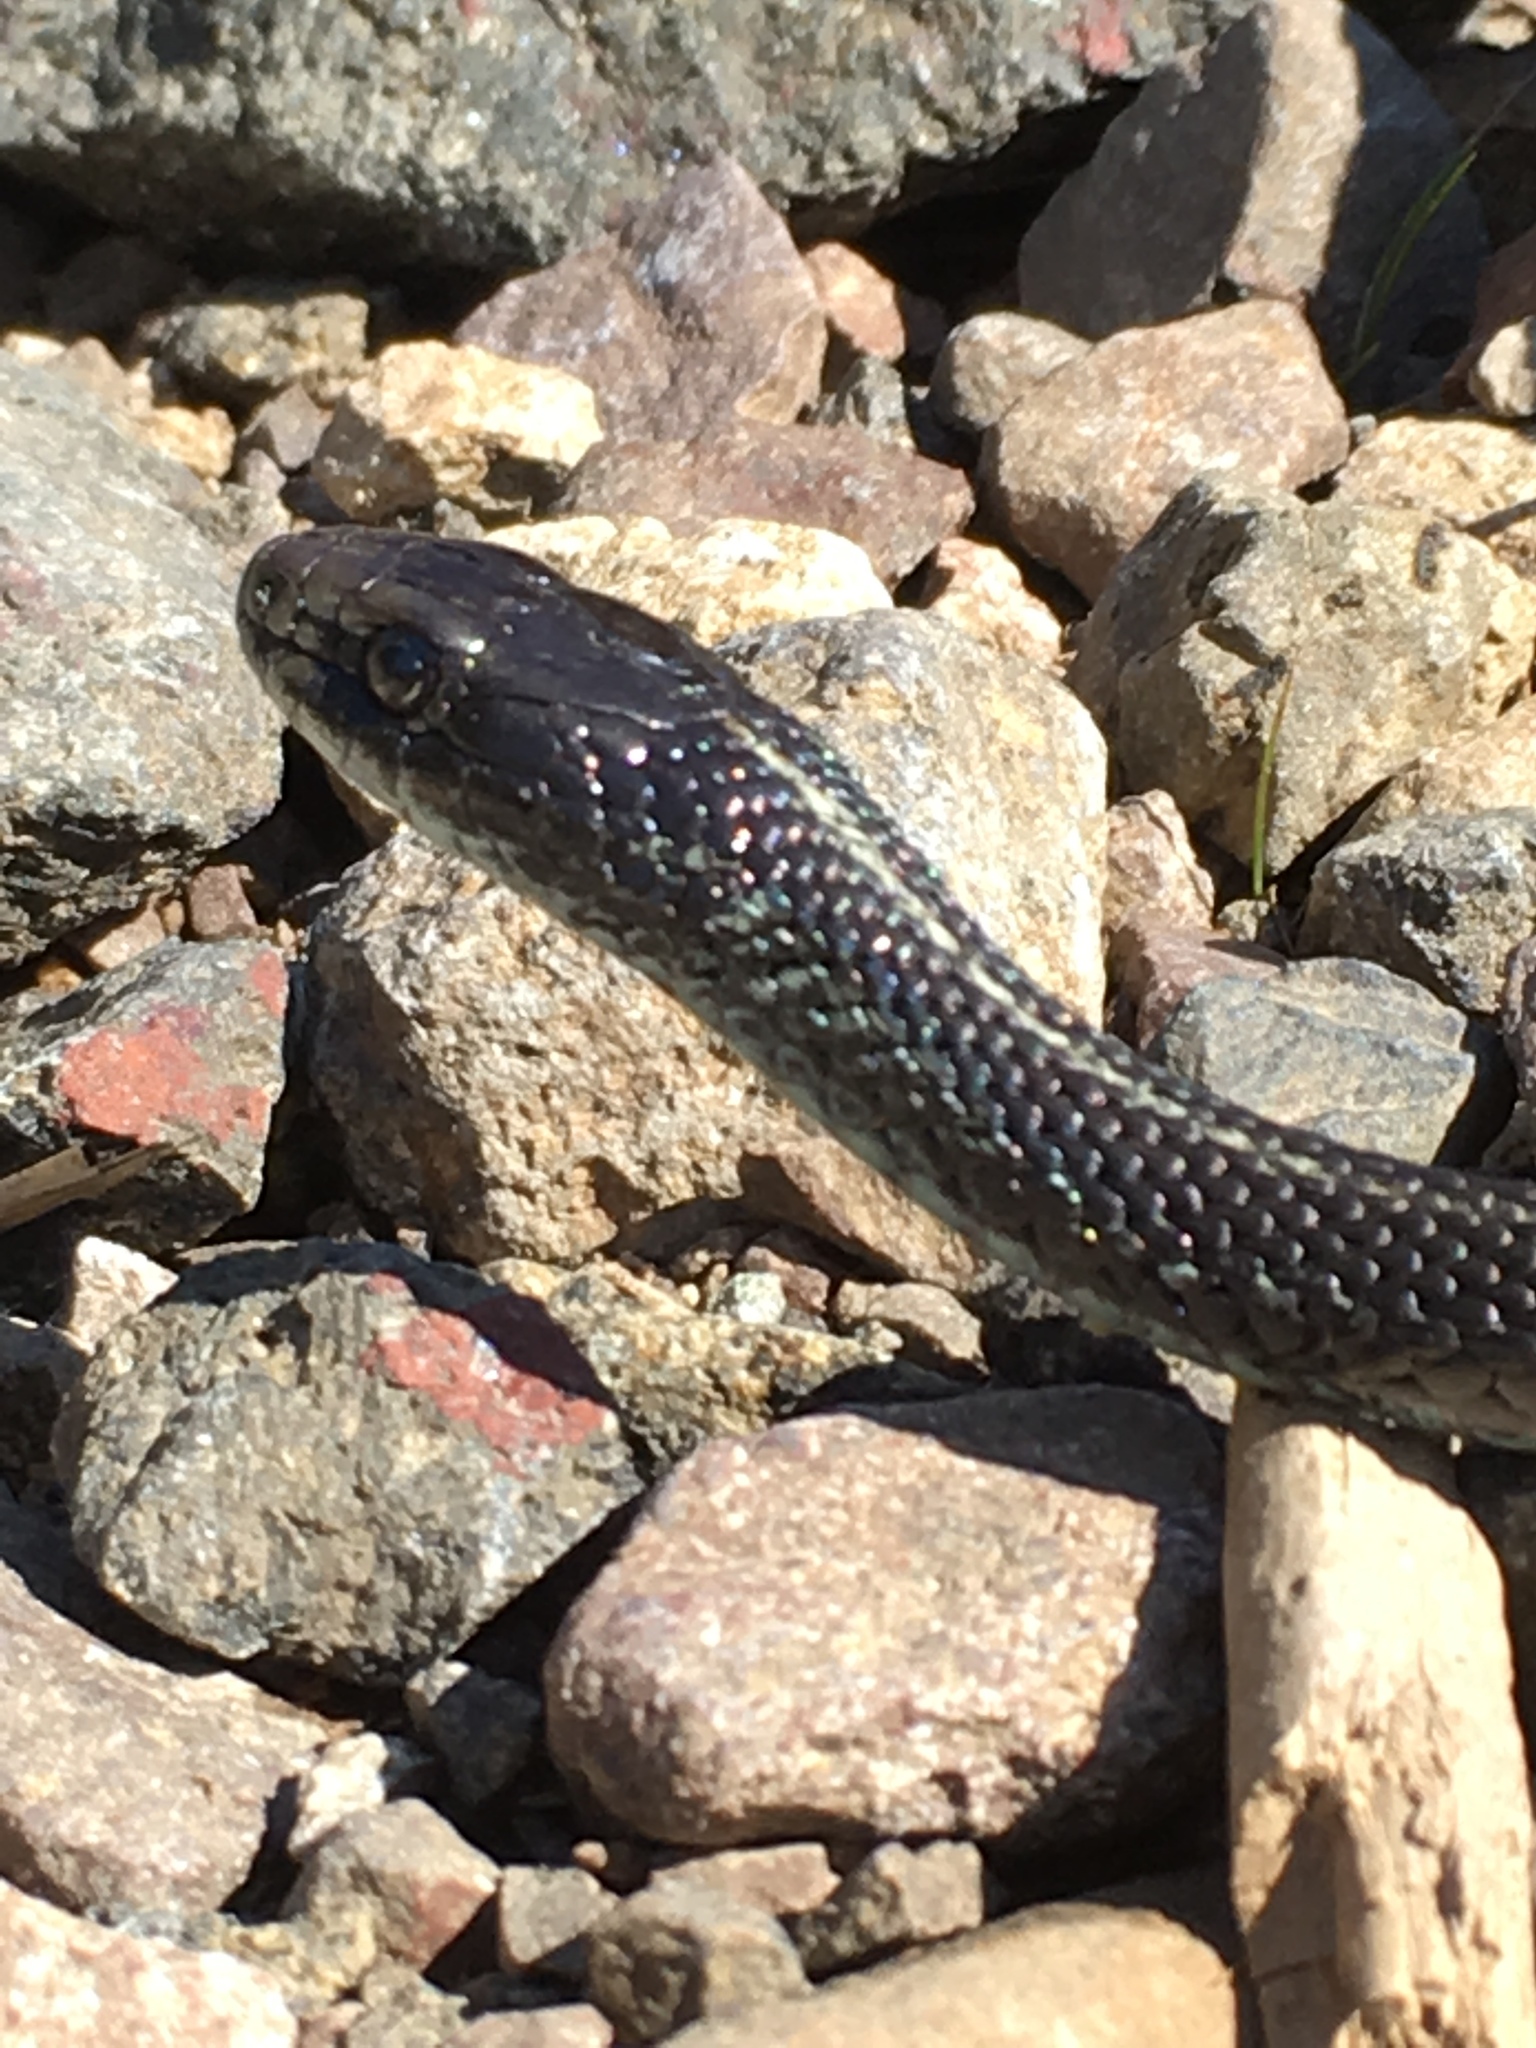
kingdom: Animalia
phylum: Chordata
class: Squamata
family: Colubridae
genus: Thamnophis
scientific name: Thamnophis ordinoides
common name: Northwestern garter snake
